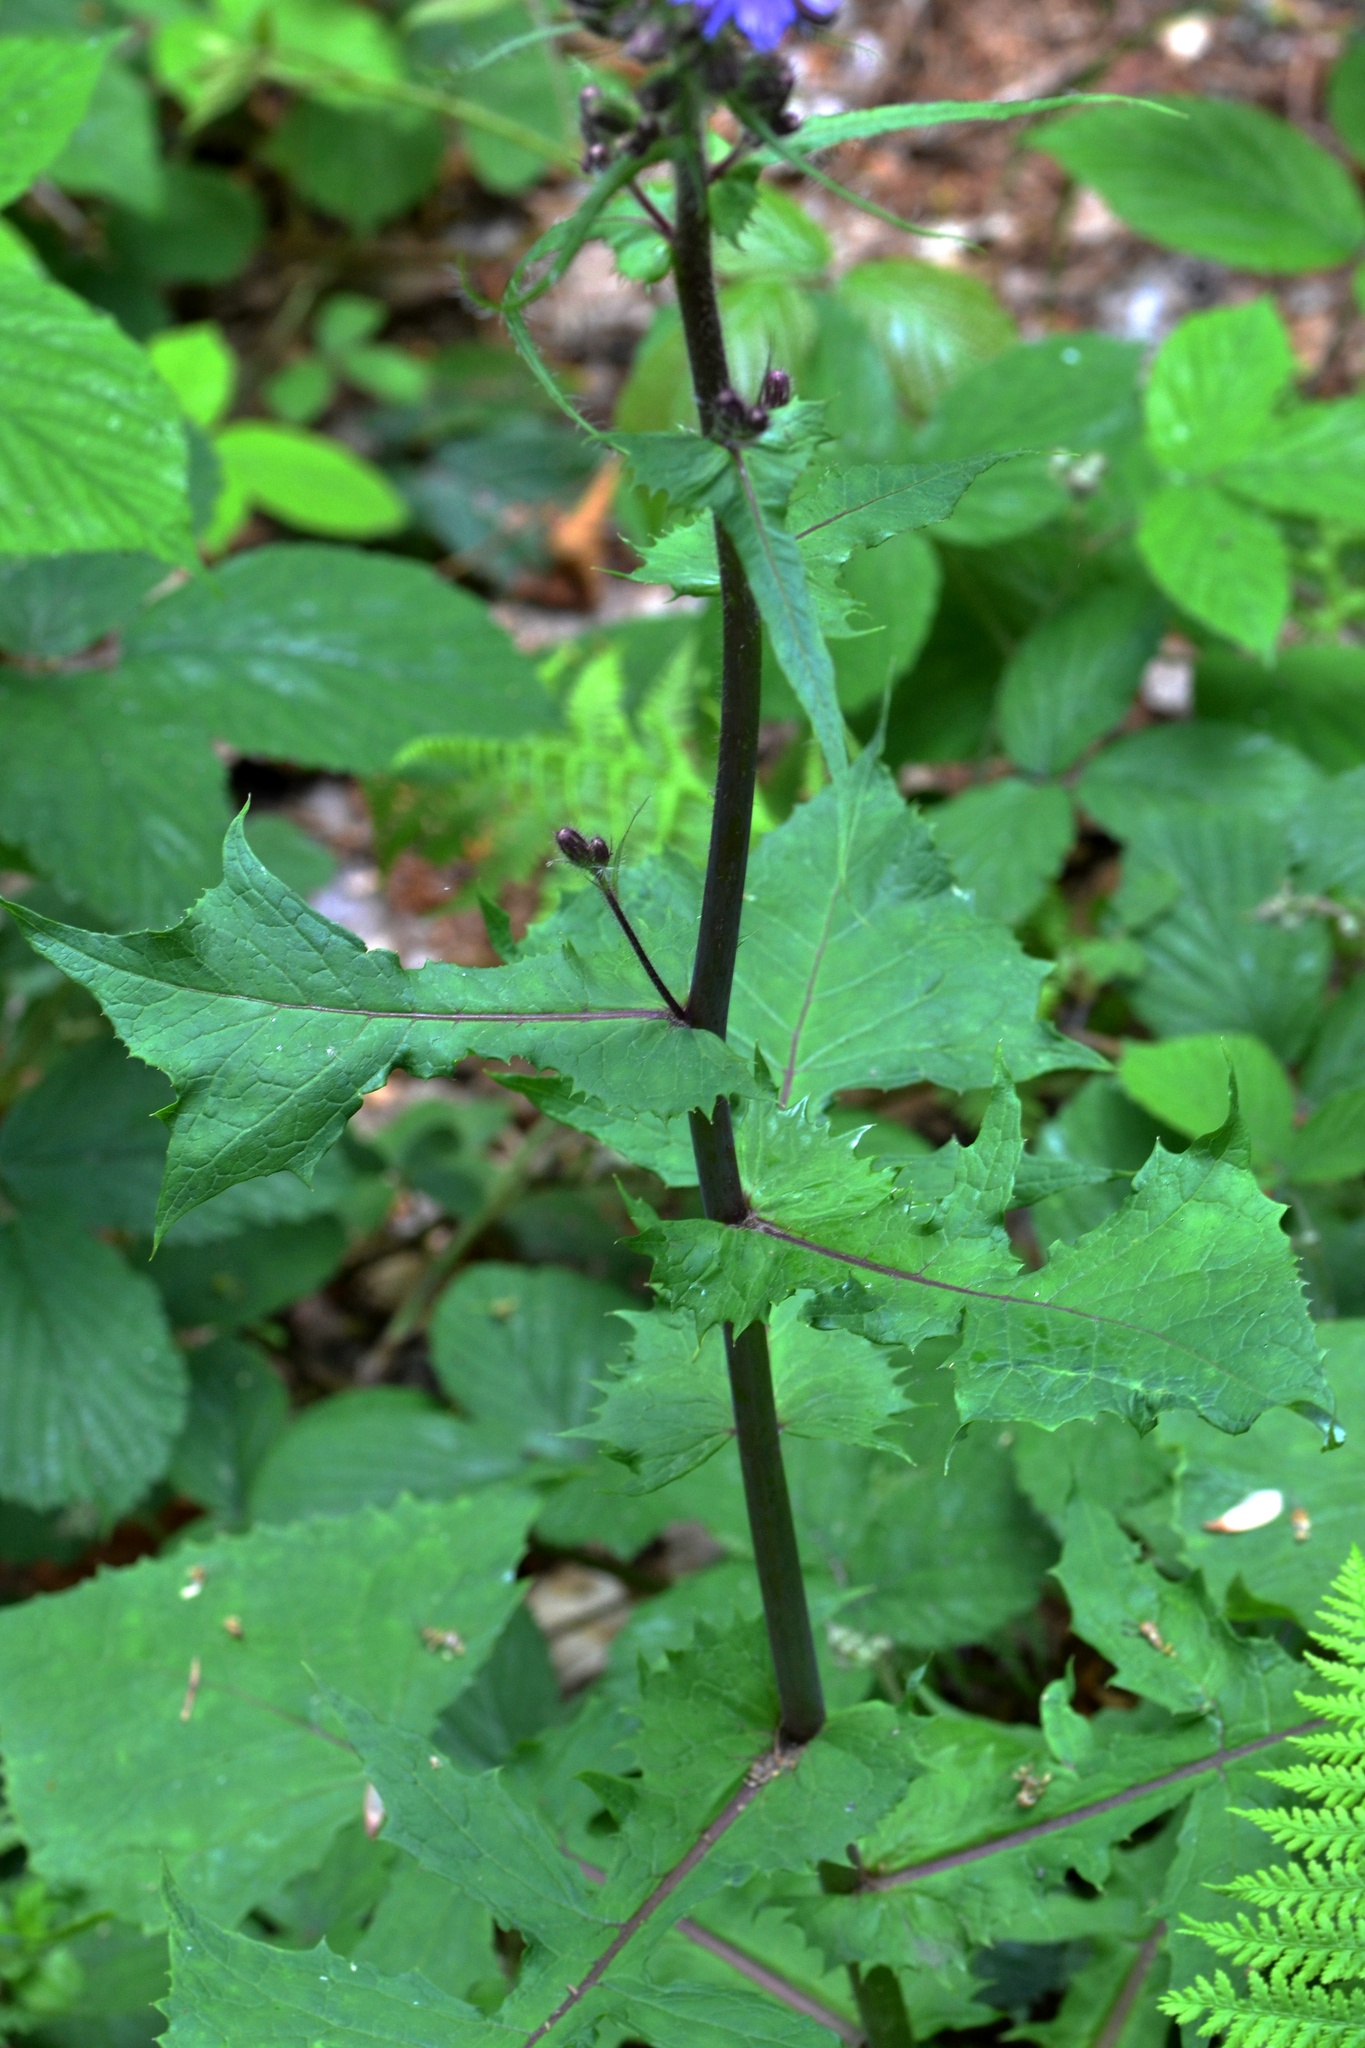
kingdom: Plantae
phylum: Tracheophyta
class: Magnoliopsida
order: Asterales
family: Asteraceae
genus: Cicerbita
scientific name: Cicerbita alpina
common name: Alpine blue-sow-thistle
